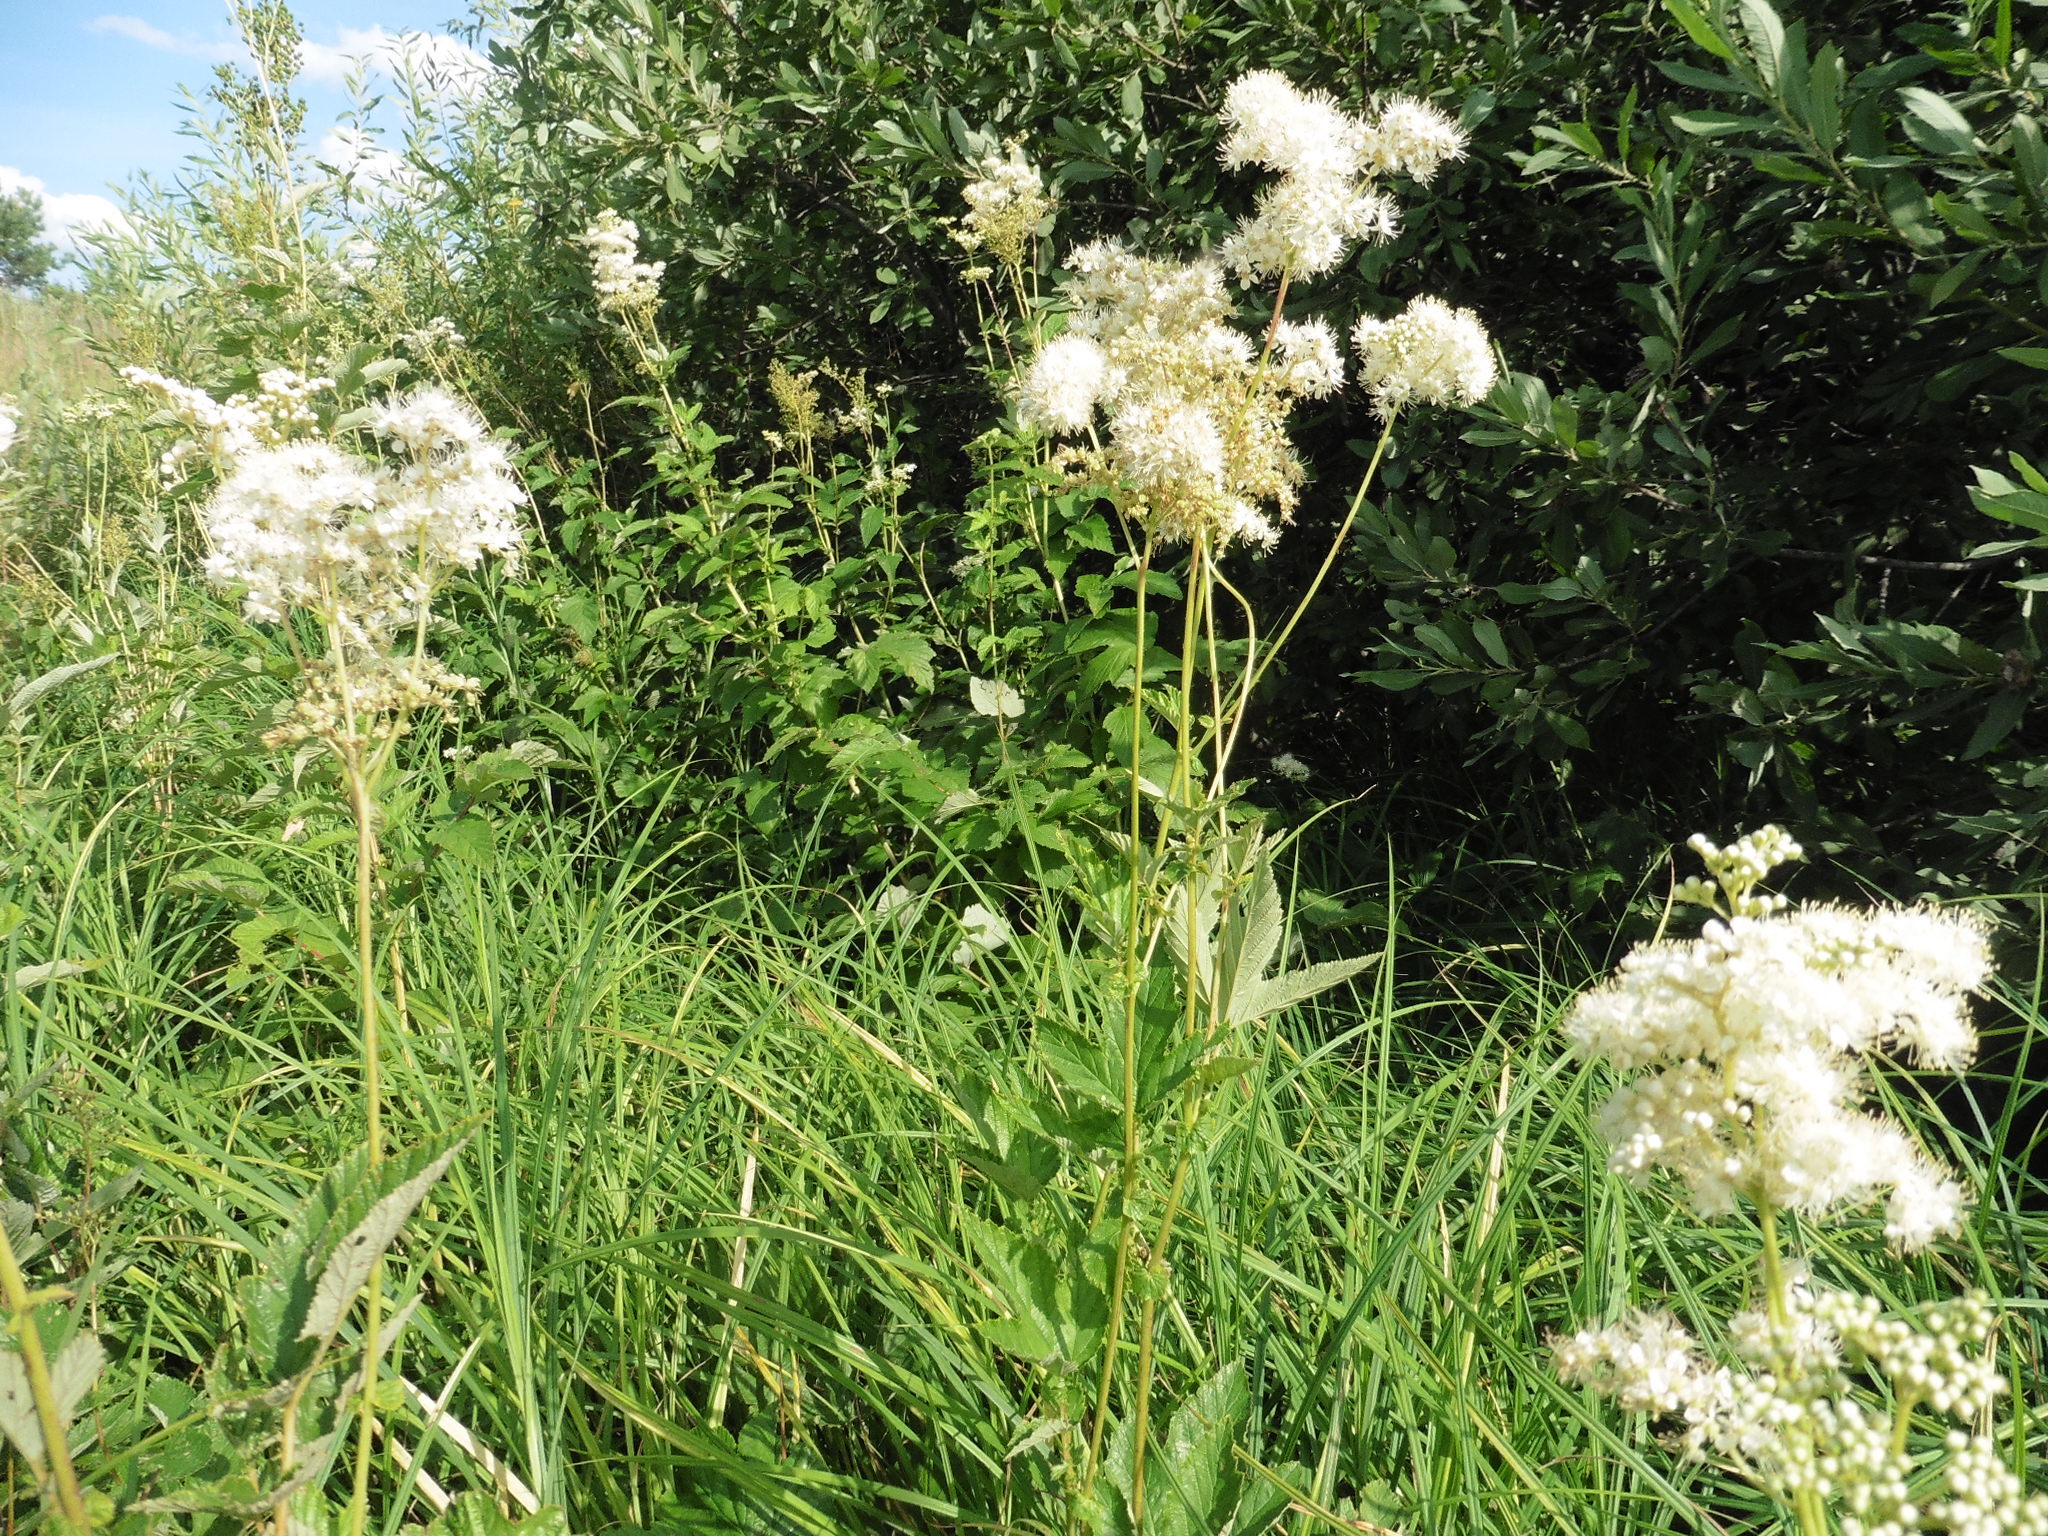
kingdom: Plantae
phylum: Tracheophyta
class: Magnoliopsida
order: Rosales
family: Rosaceae
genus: Filipendula
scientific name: Filipendula ulmaria
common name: Meadowsweet
